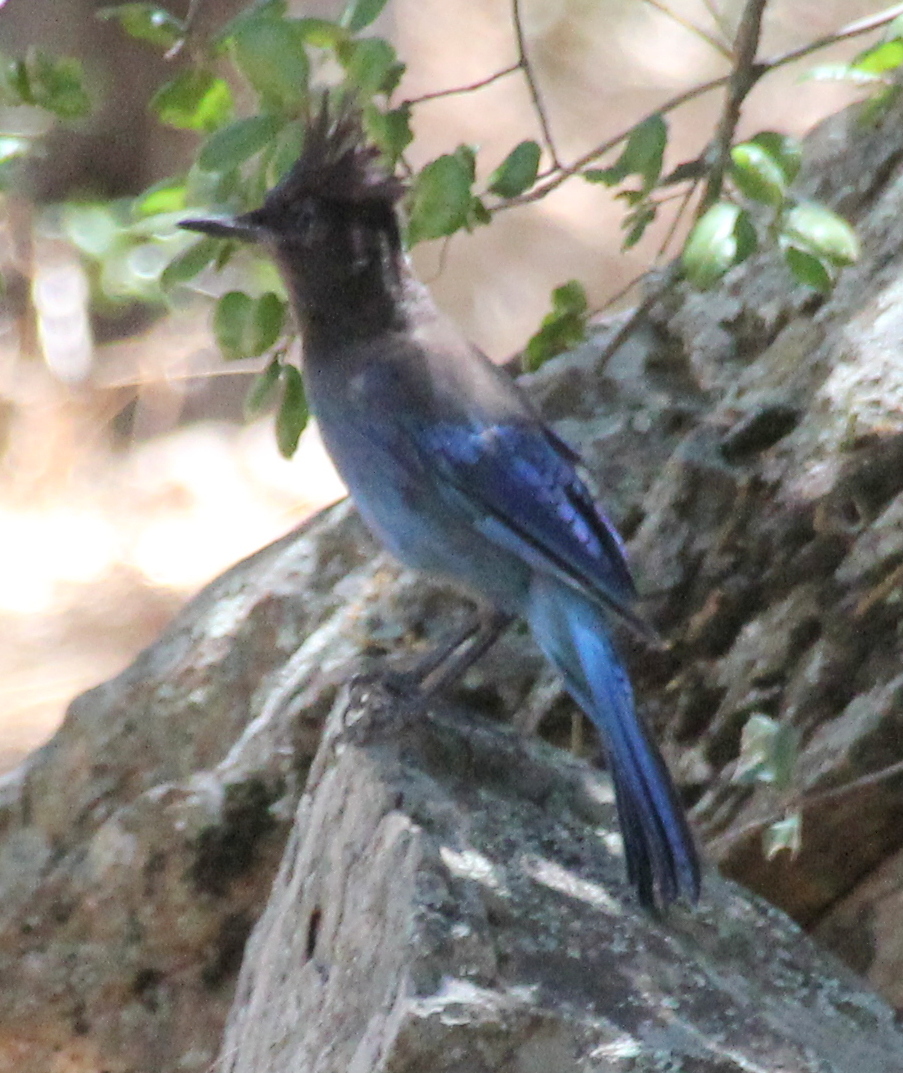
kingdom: Animalia
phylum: Chordata
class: Aves
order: Passeriformes
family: Corvidae
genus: Cyanocitta
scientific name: Cyanocitta stelleri
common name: Steller's jay
